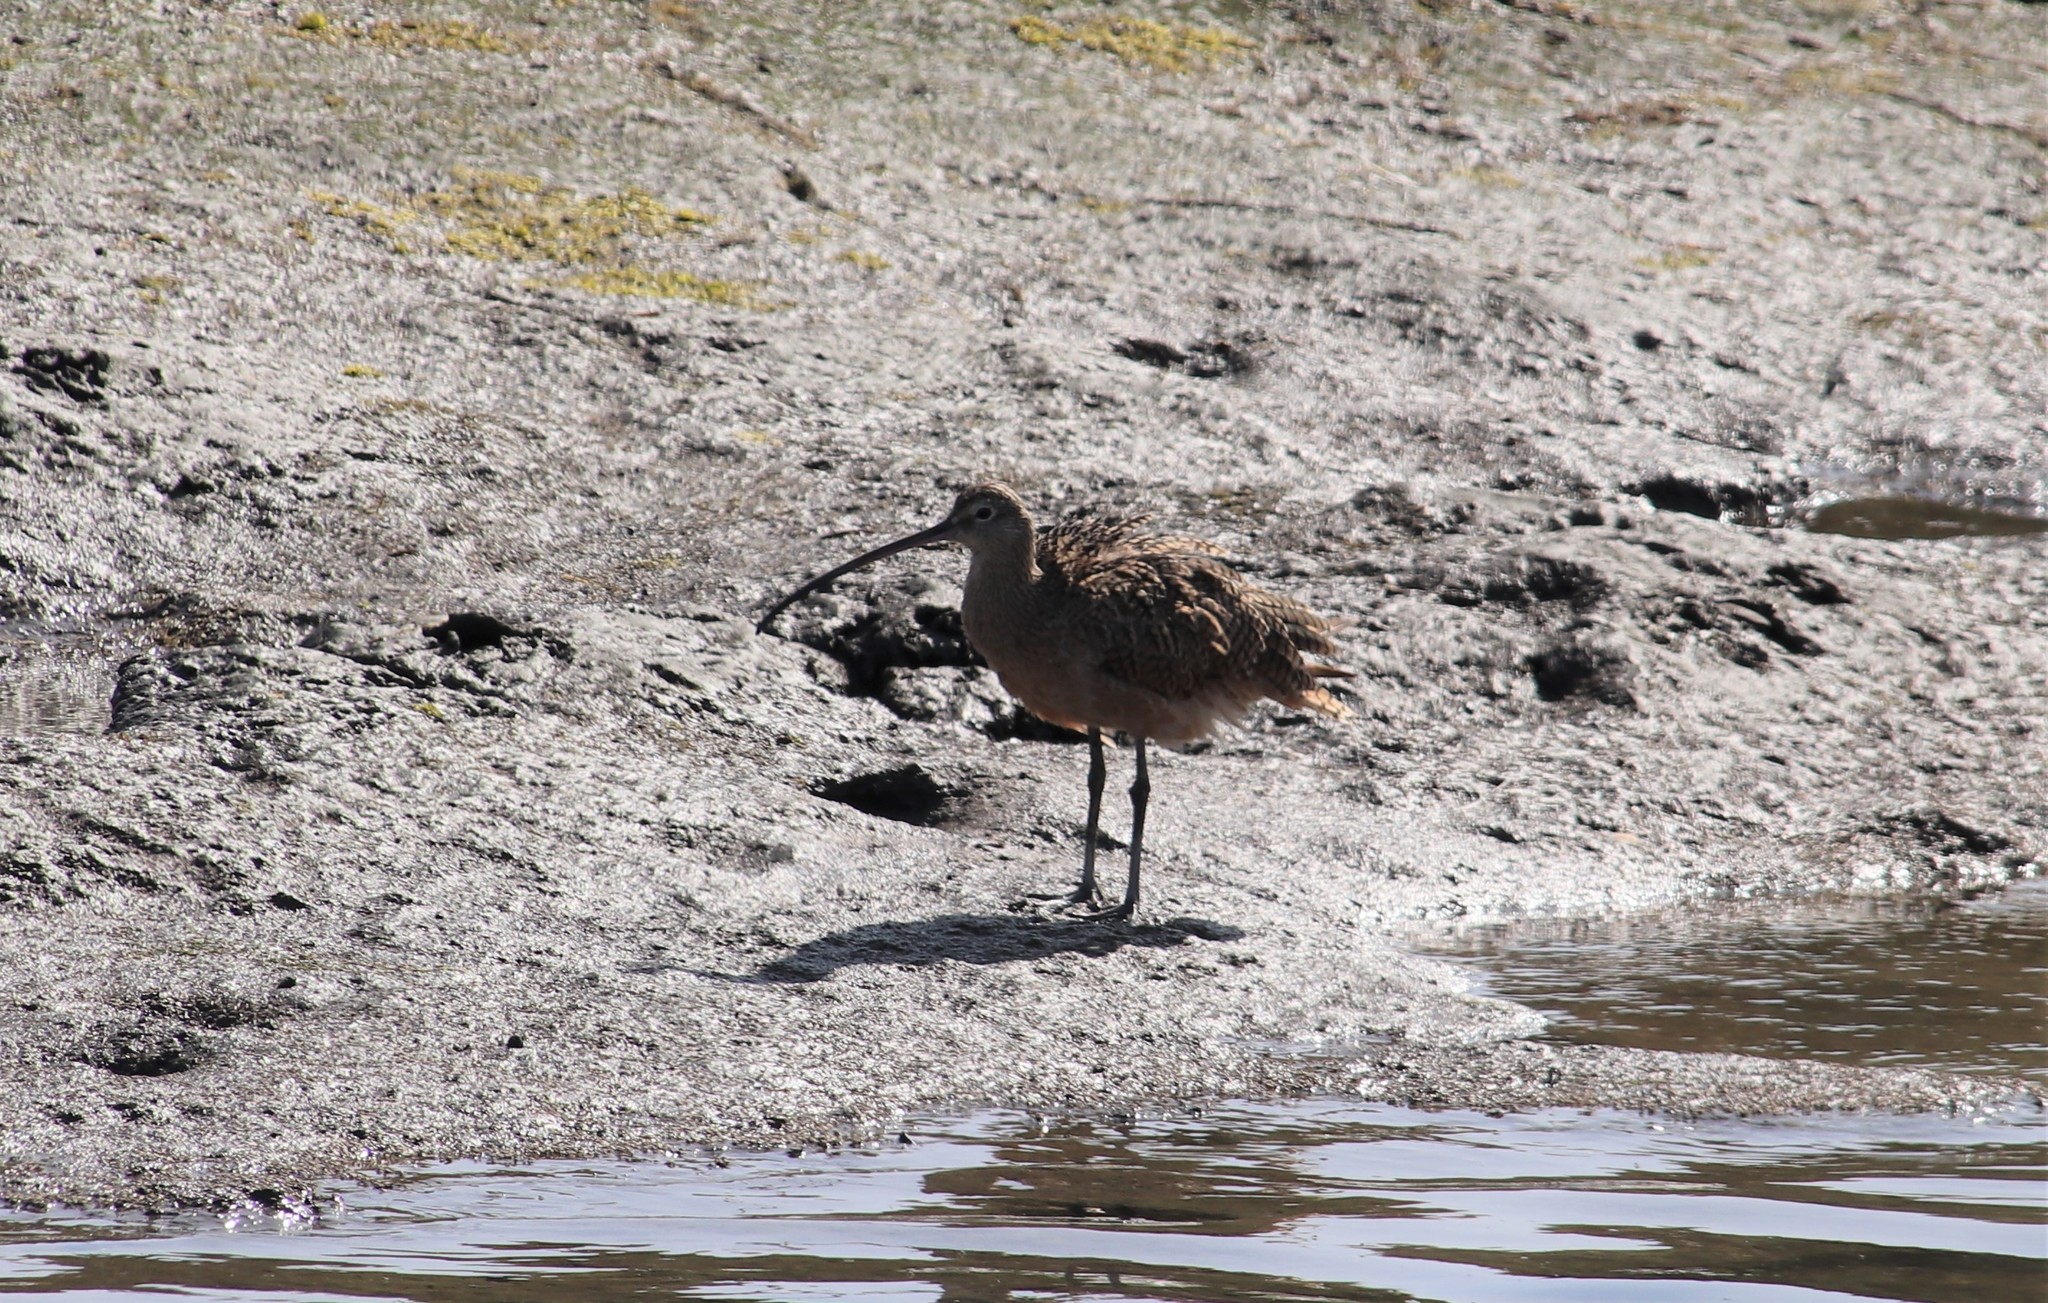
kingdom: Animalia
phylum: Chordata
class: Aves
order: Charadriiformes
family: Scolopacidae
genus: Numenius
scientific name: Numenius americanus
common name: Long-billed curlew
